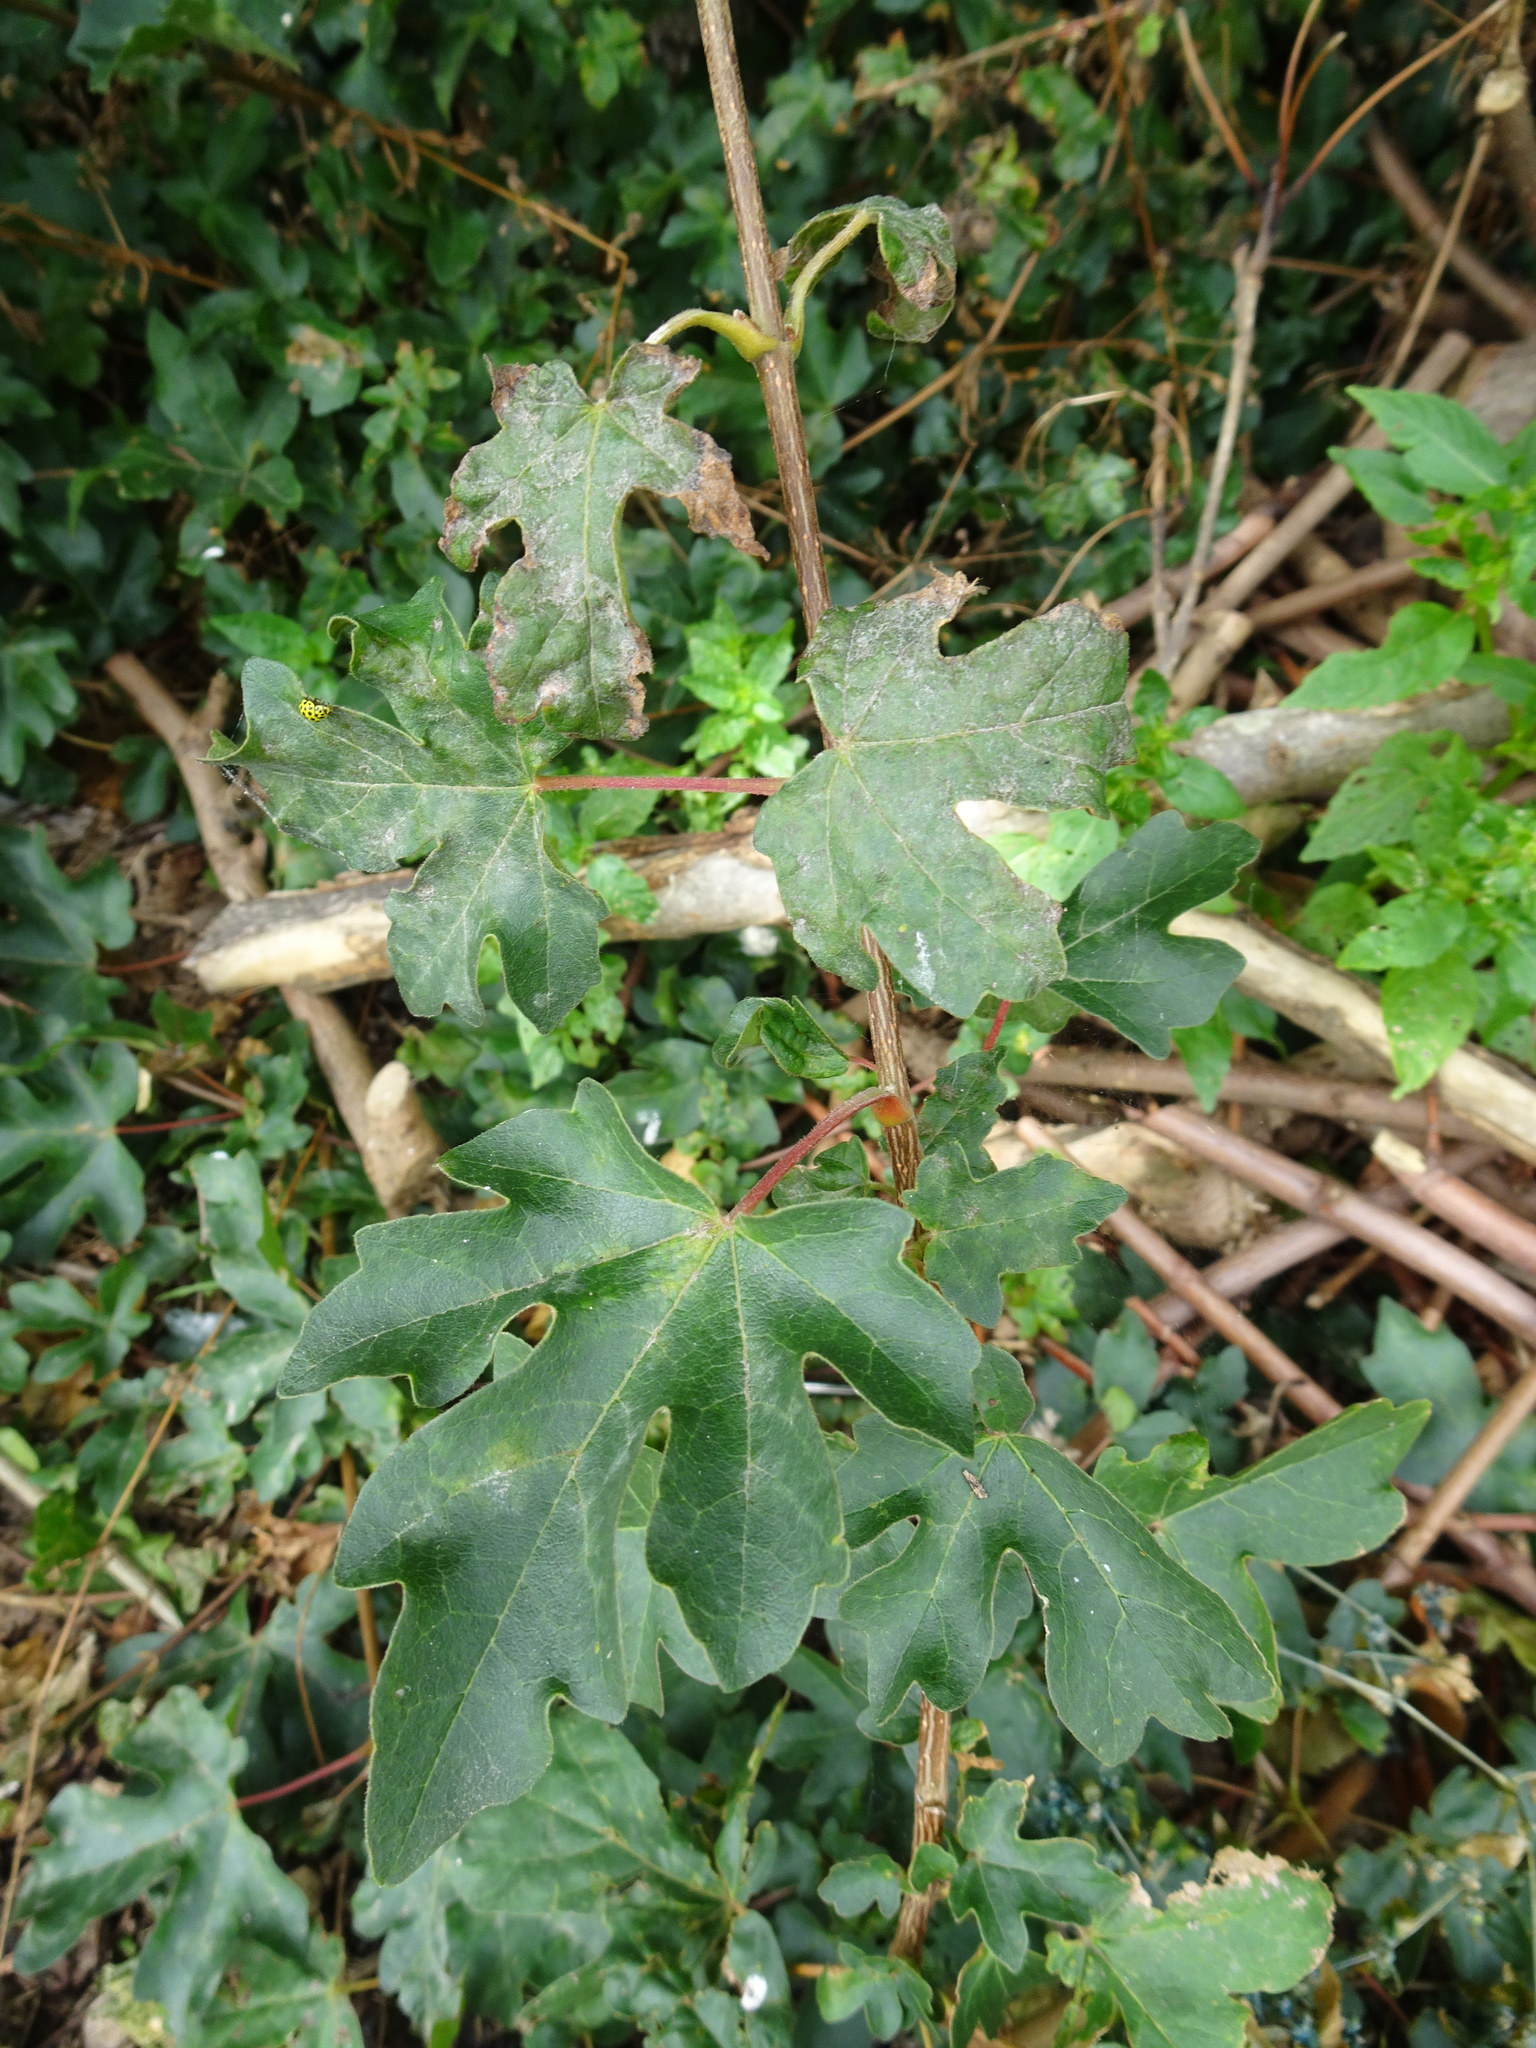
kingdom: Plantae
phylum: Tracheophyta
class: Magnoliopsida
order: Sapindales
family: Sapindaceae
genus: Acer
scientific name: Acer campestre
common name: Field maple
